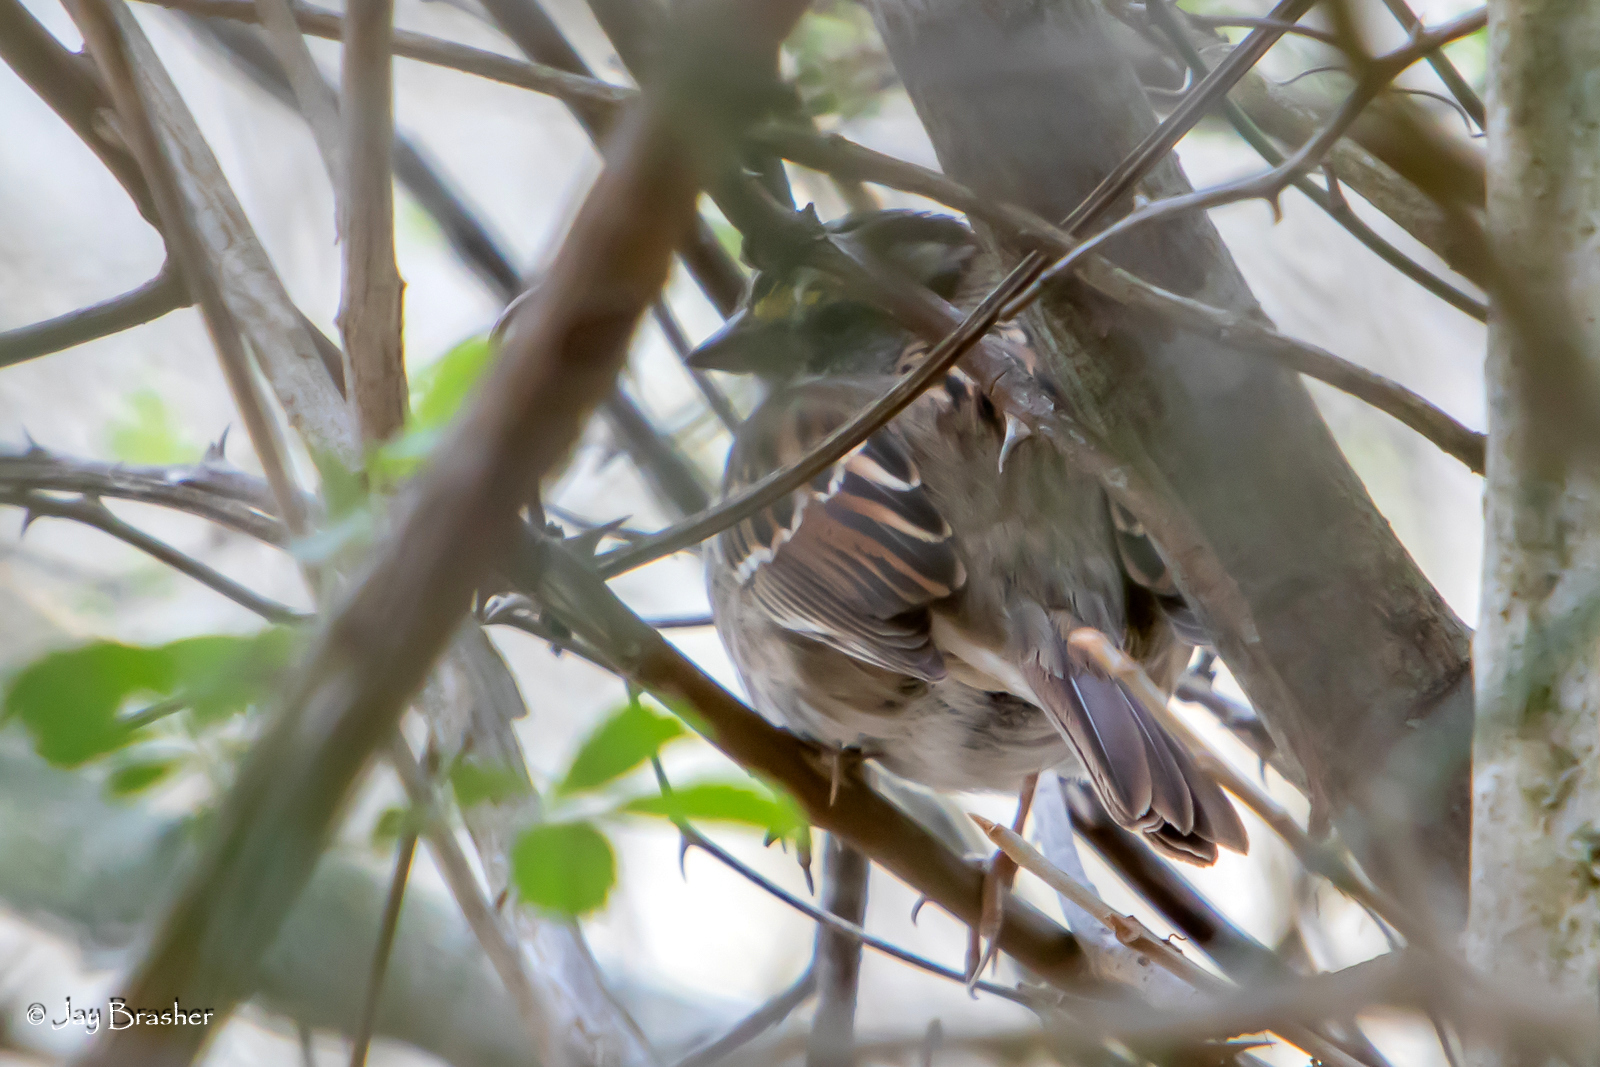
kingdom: Animalia
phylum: Chordata
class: Aves
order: Passeriformes
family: Passerellidae
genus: Zonotrichia
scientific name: Zonotrichia albicollis
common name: White-throated sparrow
